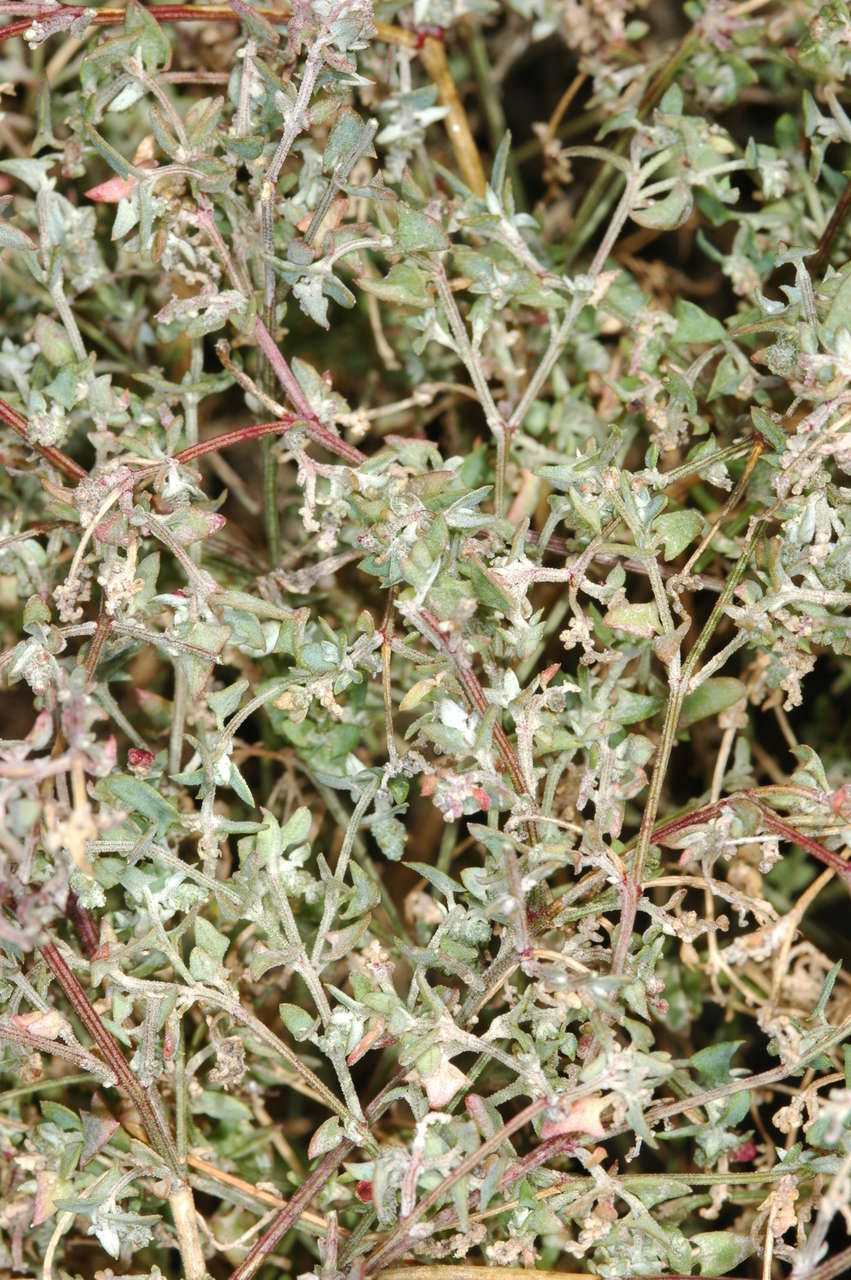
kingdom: Plantae
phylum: Tracheophyta
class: Magnoliopsida
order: Caryophyllales
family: Amaranthaceae
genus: Chenopodium
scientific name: Chenopodium nutans
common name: Climbing-saltbush
